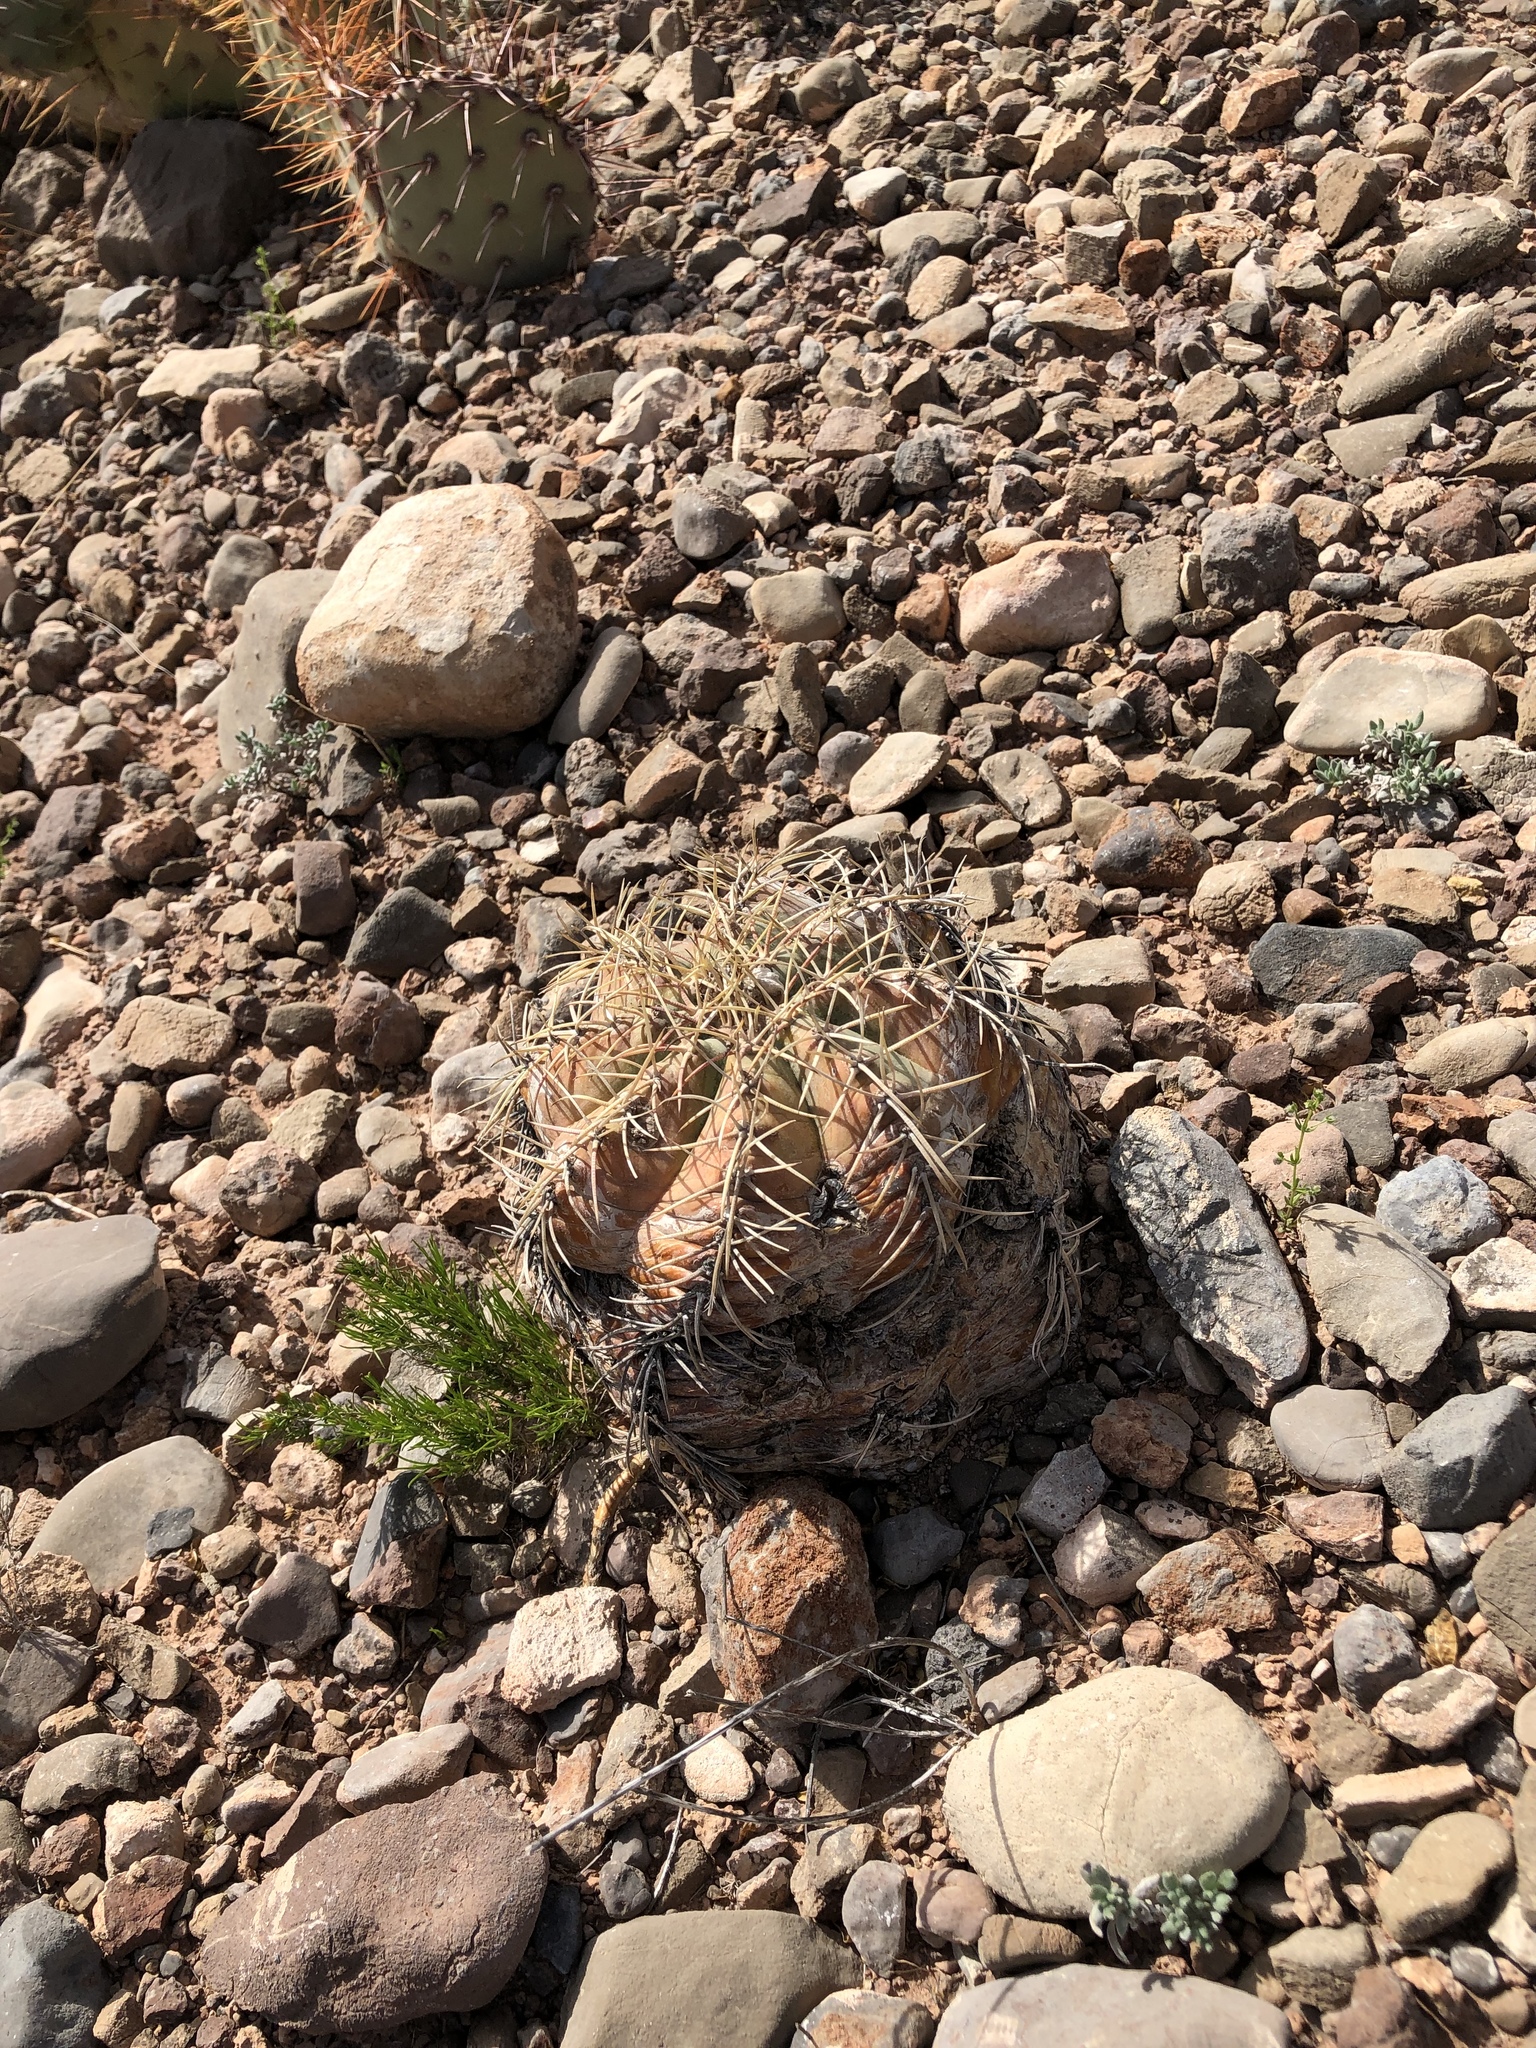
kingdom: Plantae
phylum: Tracheophyta
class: Magnoliopsida
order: Caryophyllales
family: Cactaceae
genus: Echinocactus
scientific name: Echinocactus horizonthalonius
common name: Devilshead
